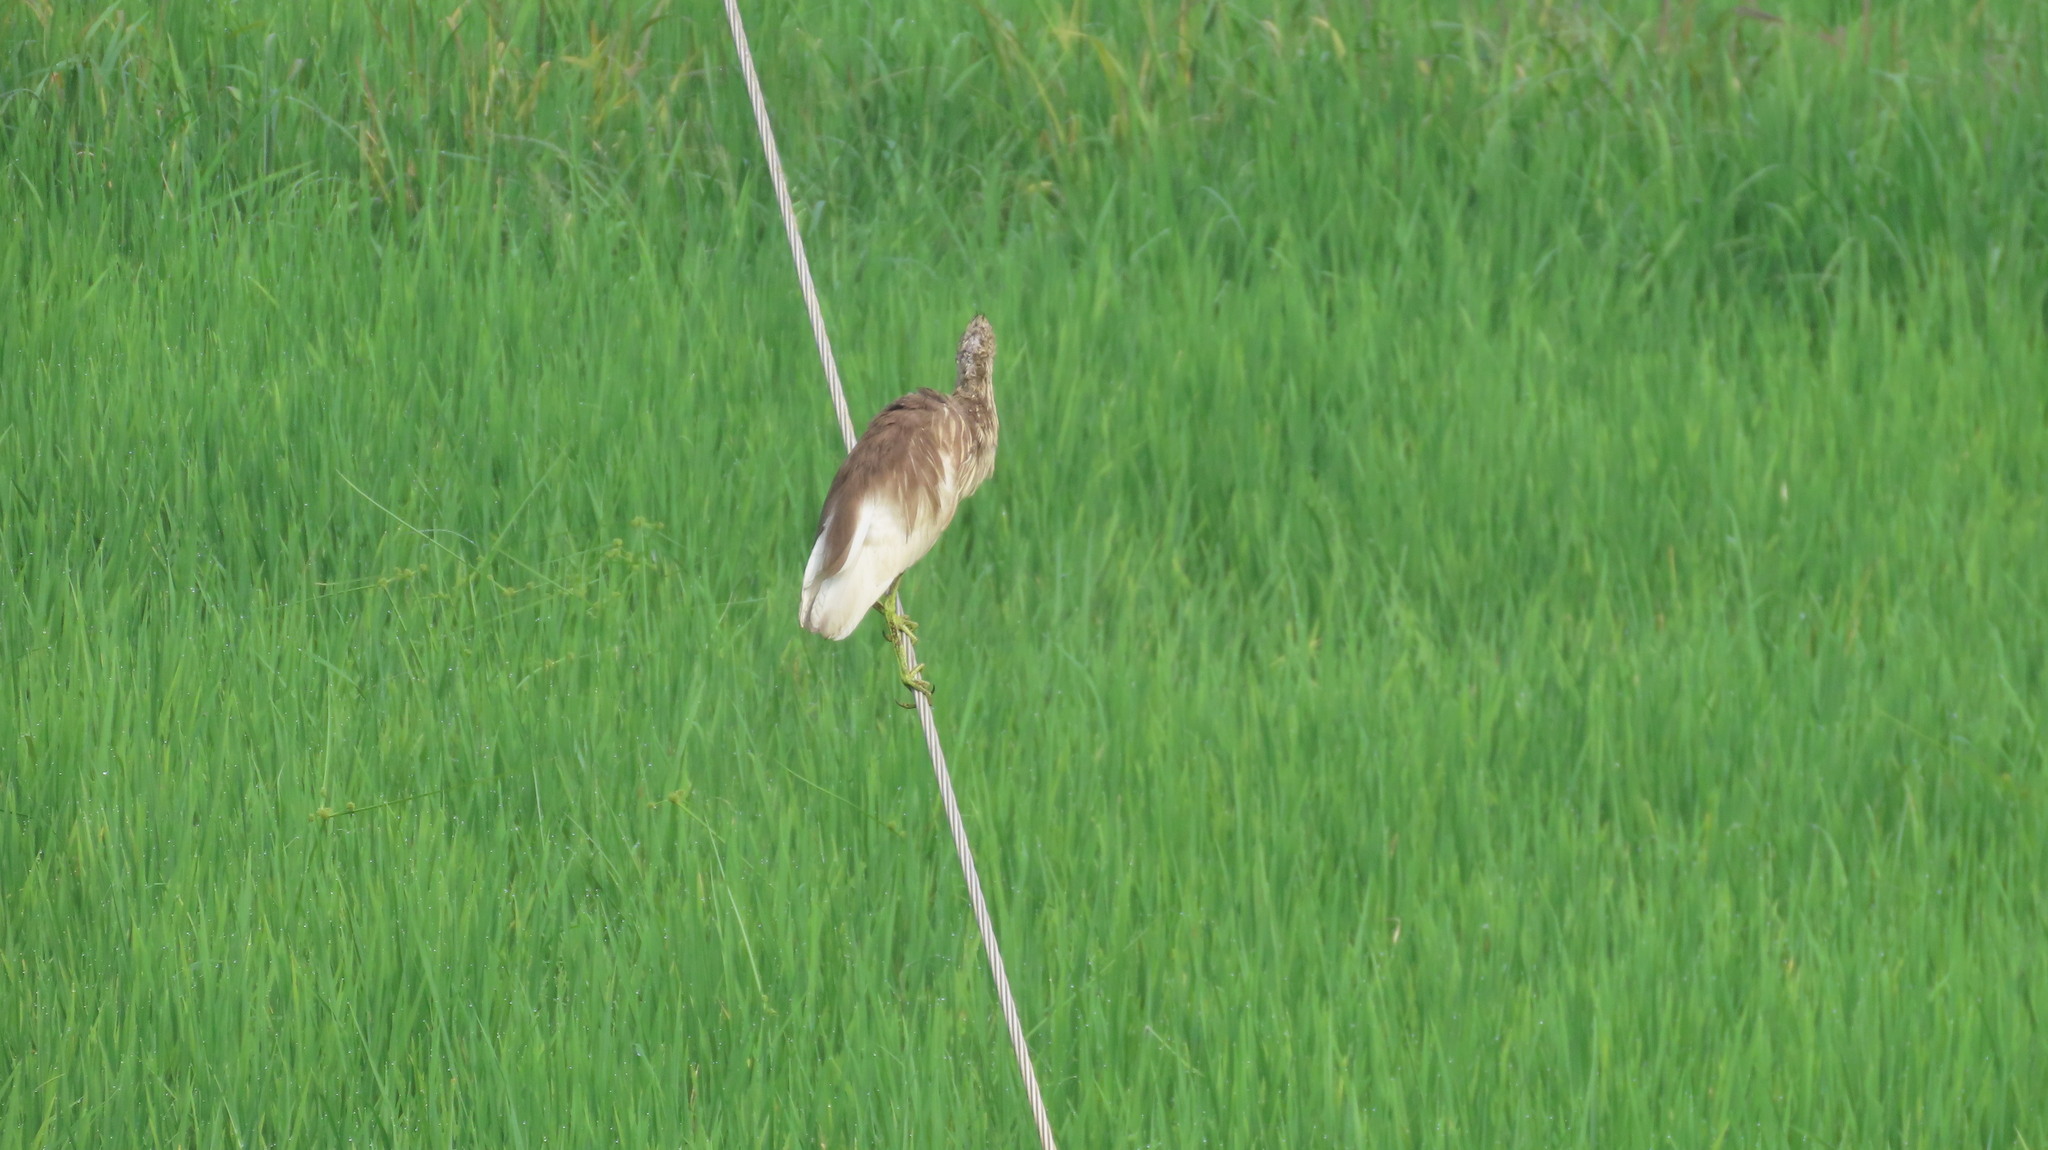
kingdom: Animalia
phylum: Chordata
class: Aves
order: Pelecaniformes
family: Ardeidae
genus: Ardeola
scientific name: Ardeola grayii
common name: Indian pond heron
